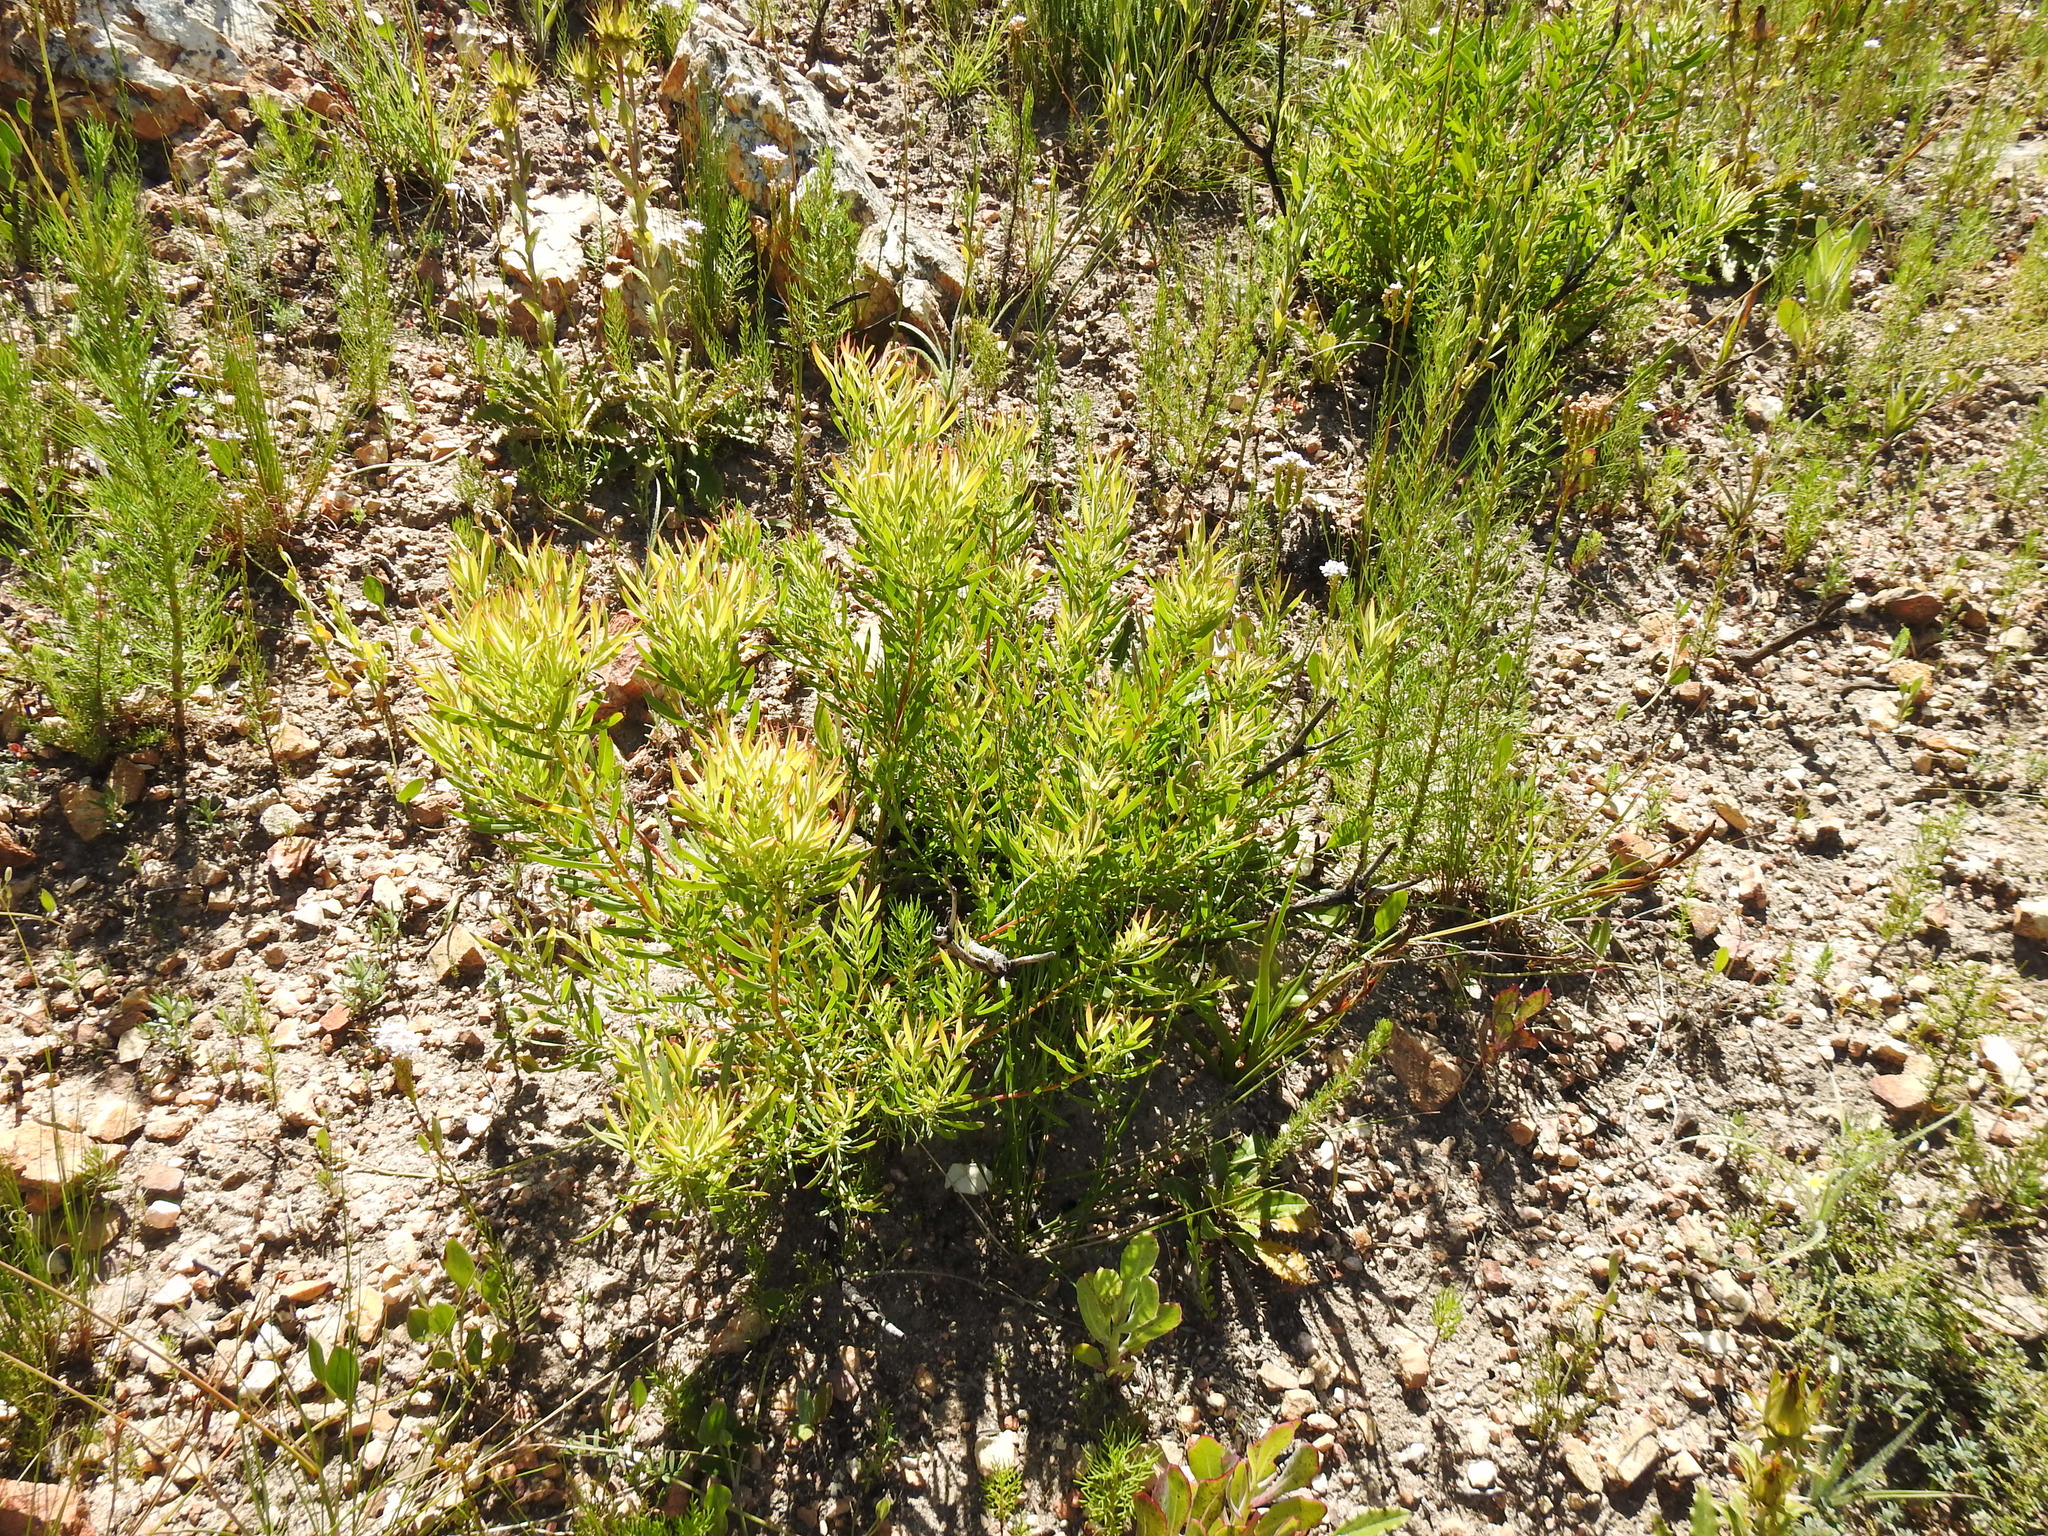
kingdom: Plantae
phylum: Tracheophyta
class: Magnoliopsida
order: Proteales
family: Proteaceae
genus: Leucadendron
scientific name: Leucadendron salignum
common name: Common sunshine conebush
